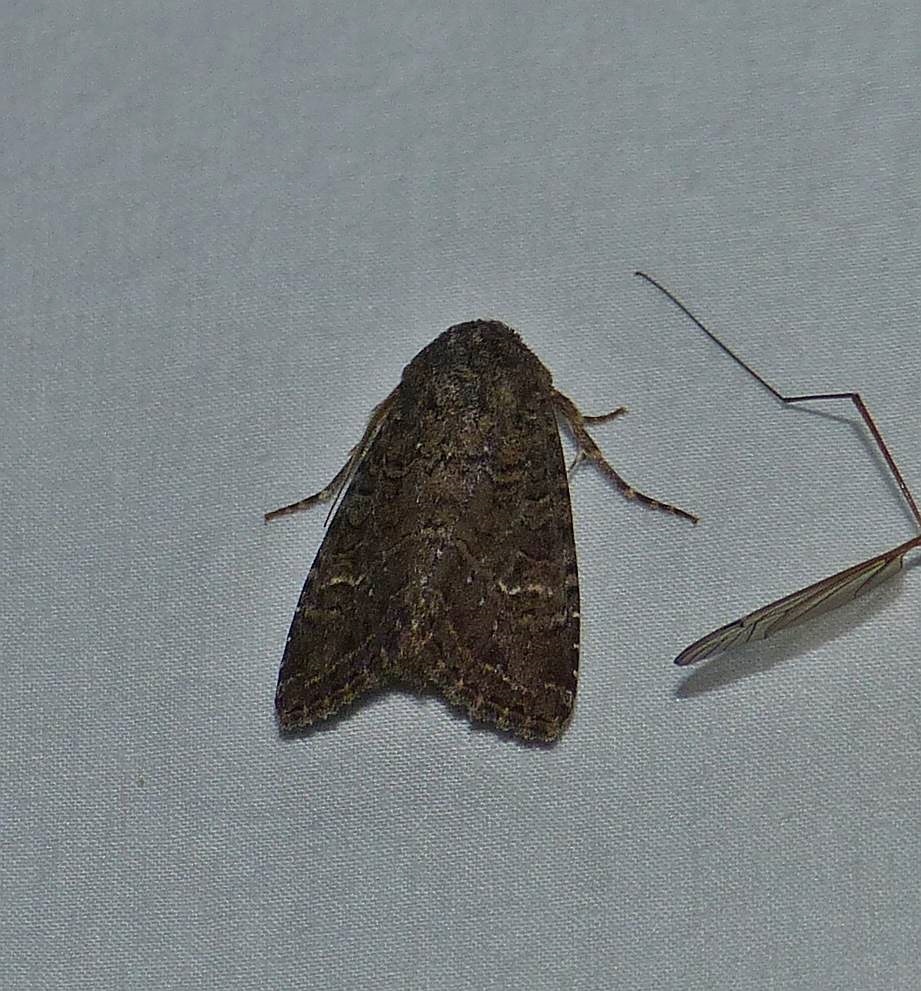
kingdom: Animalia
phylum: Arthropoda
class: Insecta
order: Lepidoptera
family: Noctuidae
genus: Apamea
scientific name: Apamea devastator
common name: Glassy cutworm
